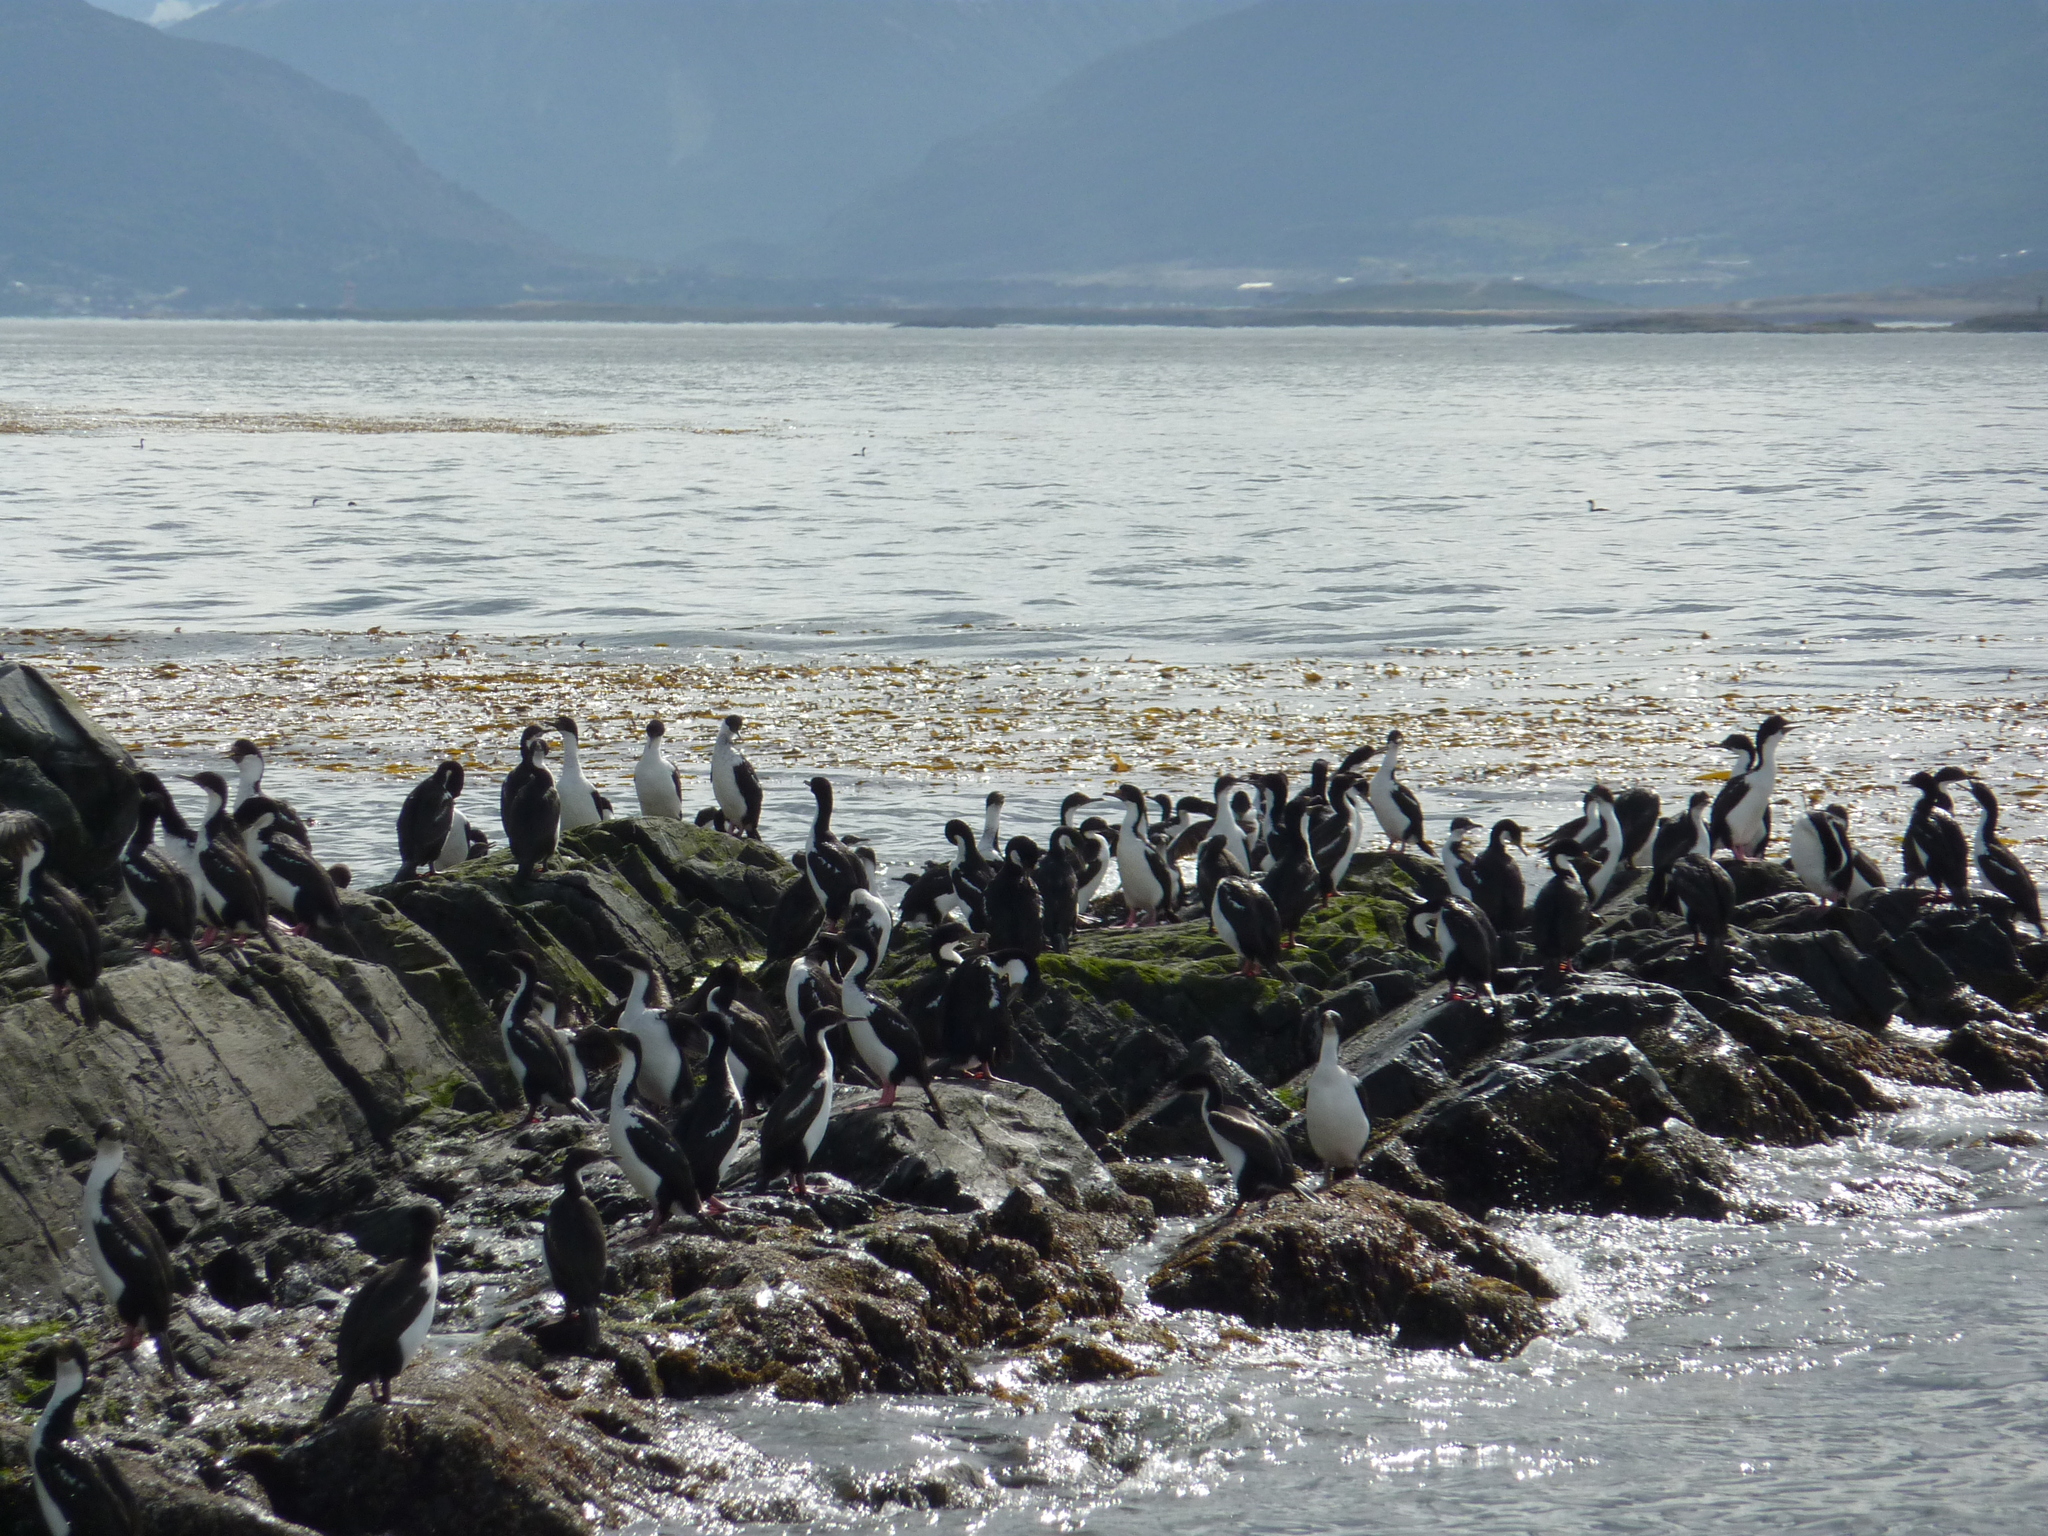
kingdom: Animalia
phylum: Chordata
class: Aves
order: Suliformes
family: Phalacrocoracidae
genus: Leucocarbo
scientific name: Leucocarbo atriceps
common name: Imperial shag
